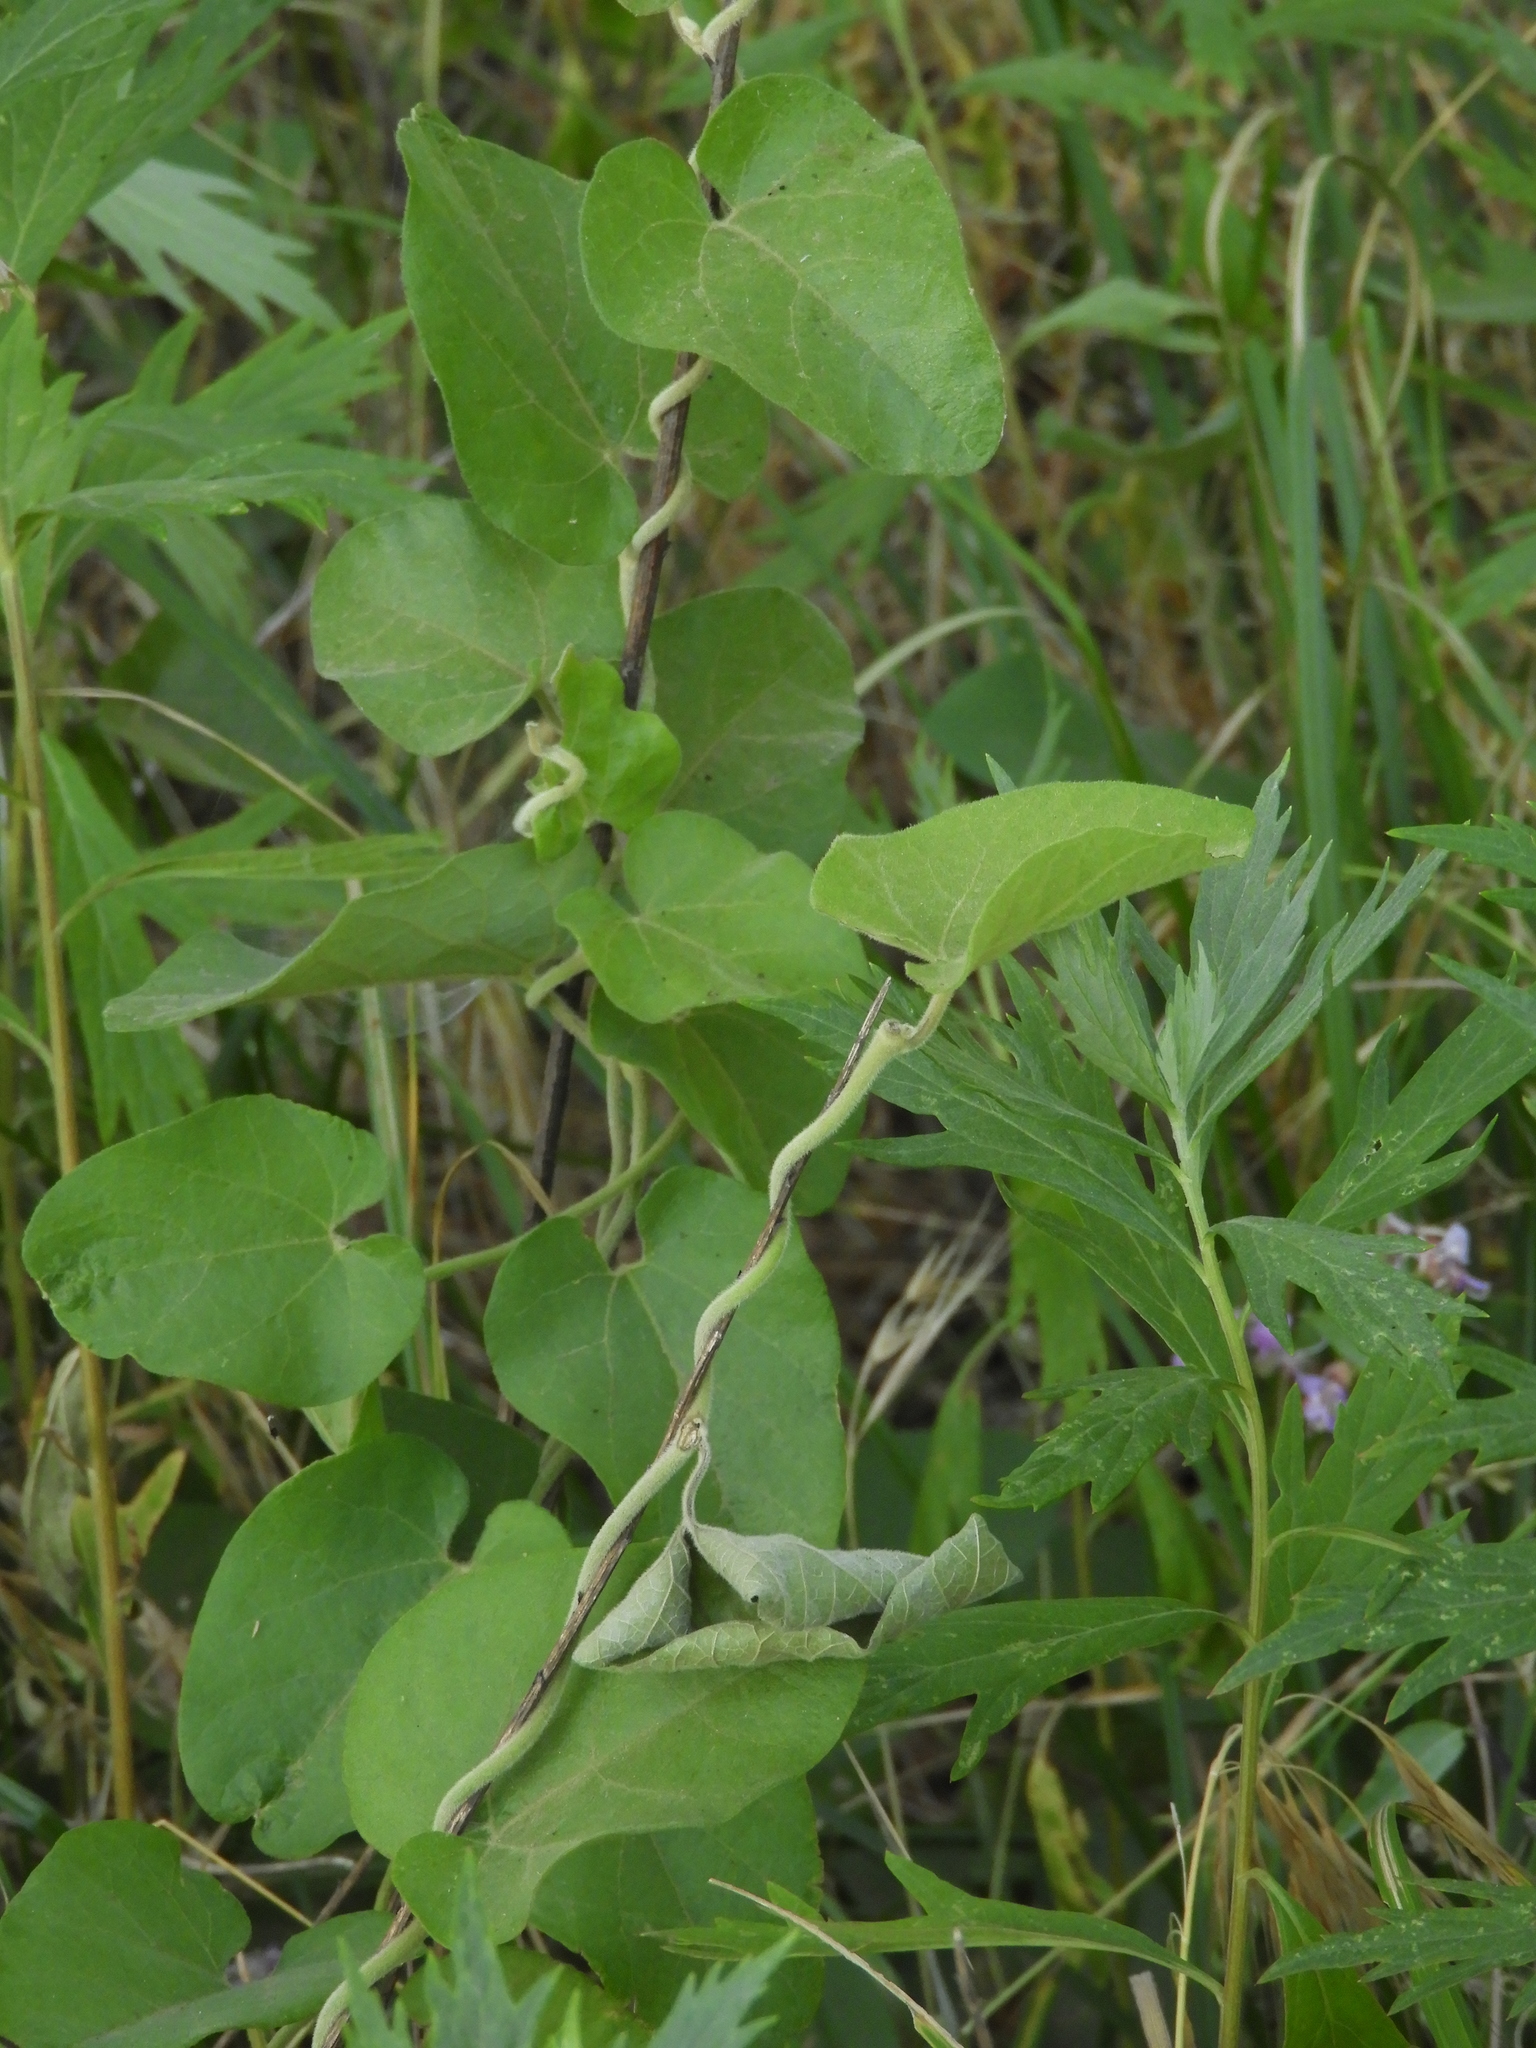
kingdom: Plantae
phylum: Tracheophyta
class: Magnoliopsida
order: Piperales
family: Aristolochiaceae
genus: Isotrema
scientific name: Isotrema californicum
